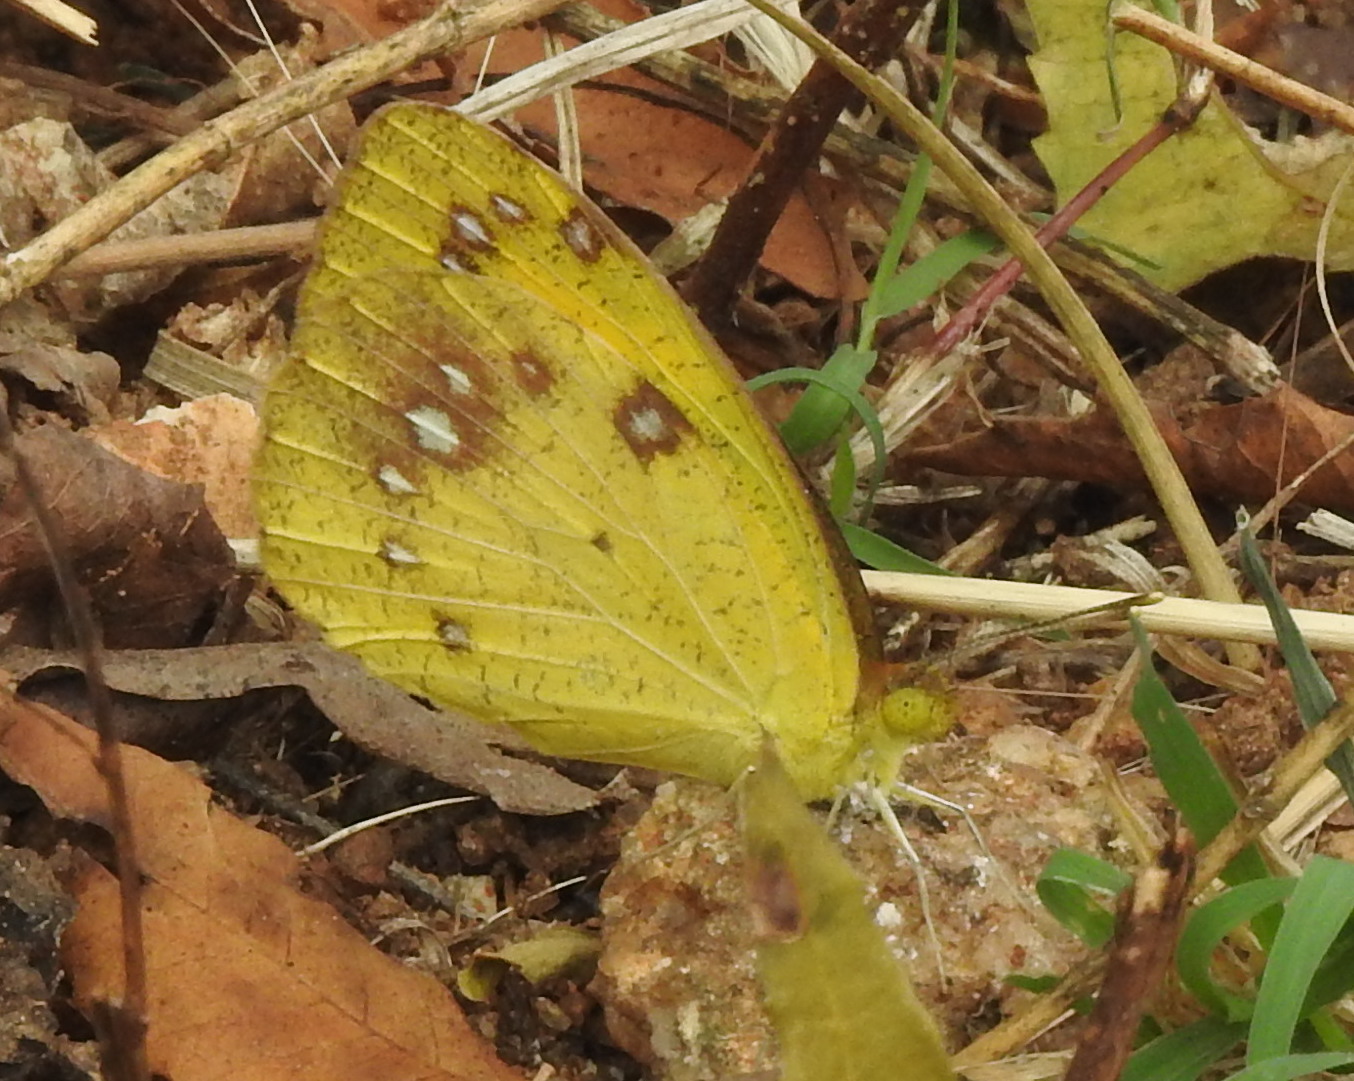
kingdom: Animalia
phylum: Arthropoda
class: Insecta
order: Lepidoptera
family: Pieridae
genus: Ixias
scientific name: Ixias marianne
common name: White orange tip
